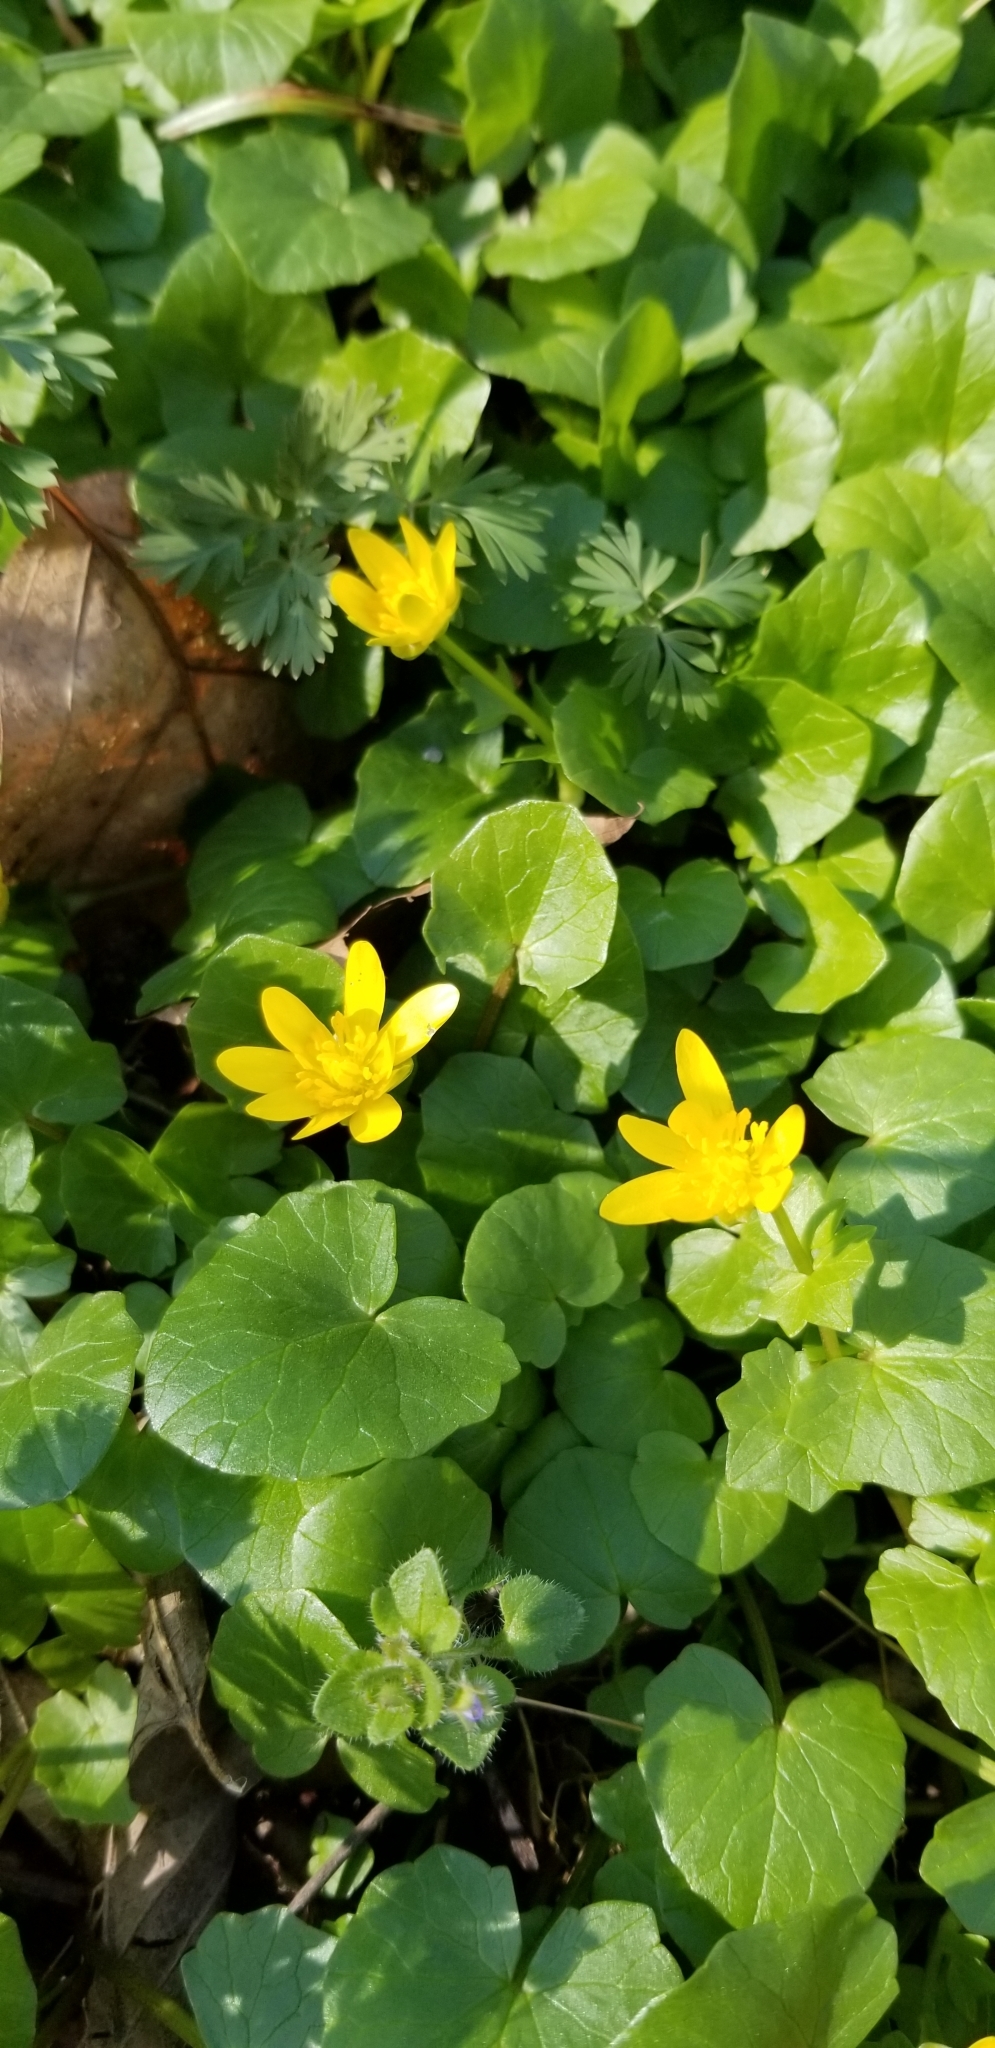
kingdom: Plantae
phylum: Tracheophyta
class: Magnoliopsida
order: Ranunculales
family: Ranunculaceae
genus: Ficaria
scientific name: Ficaria verna
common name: Lesser celandine
